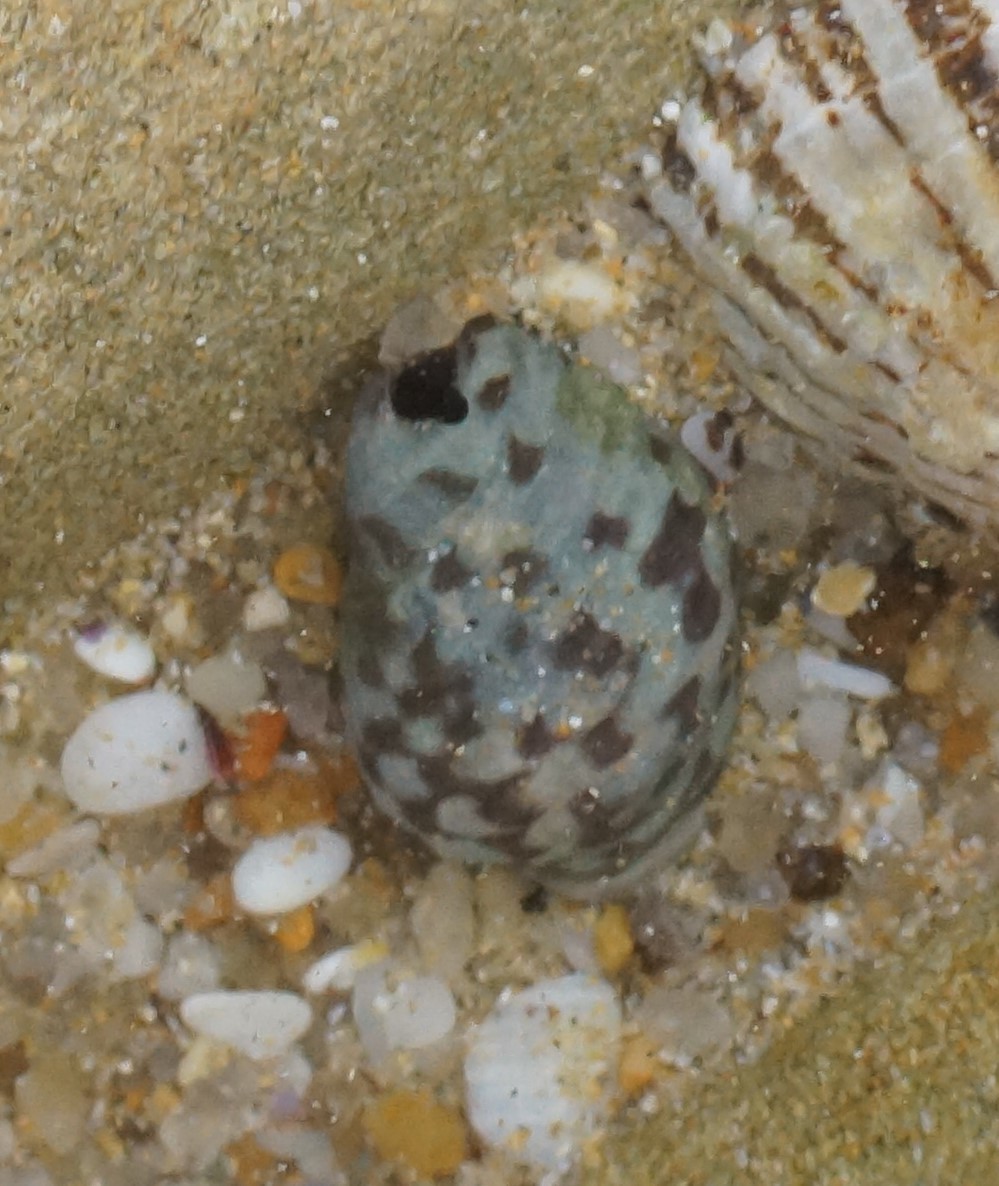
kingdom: Animalia
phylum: Mollusca
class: Gastropoda
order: Neogastropoda
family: Cominellidae
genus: Cominella
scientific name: Cominella lineolata
